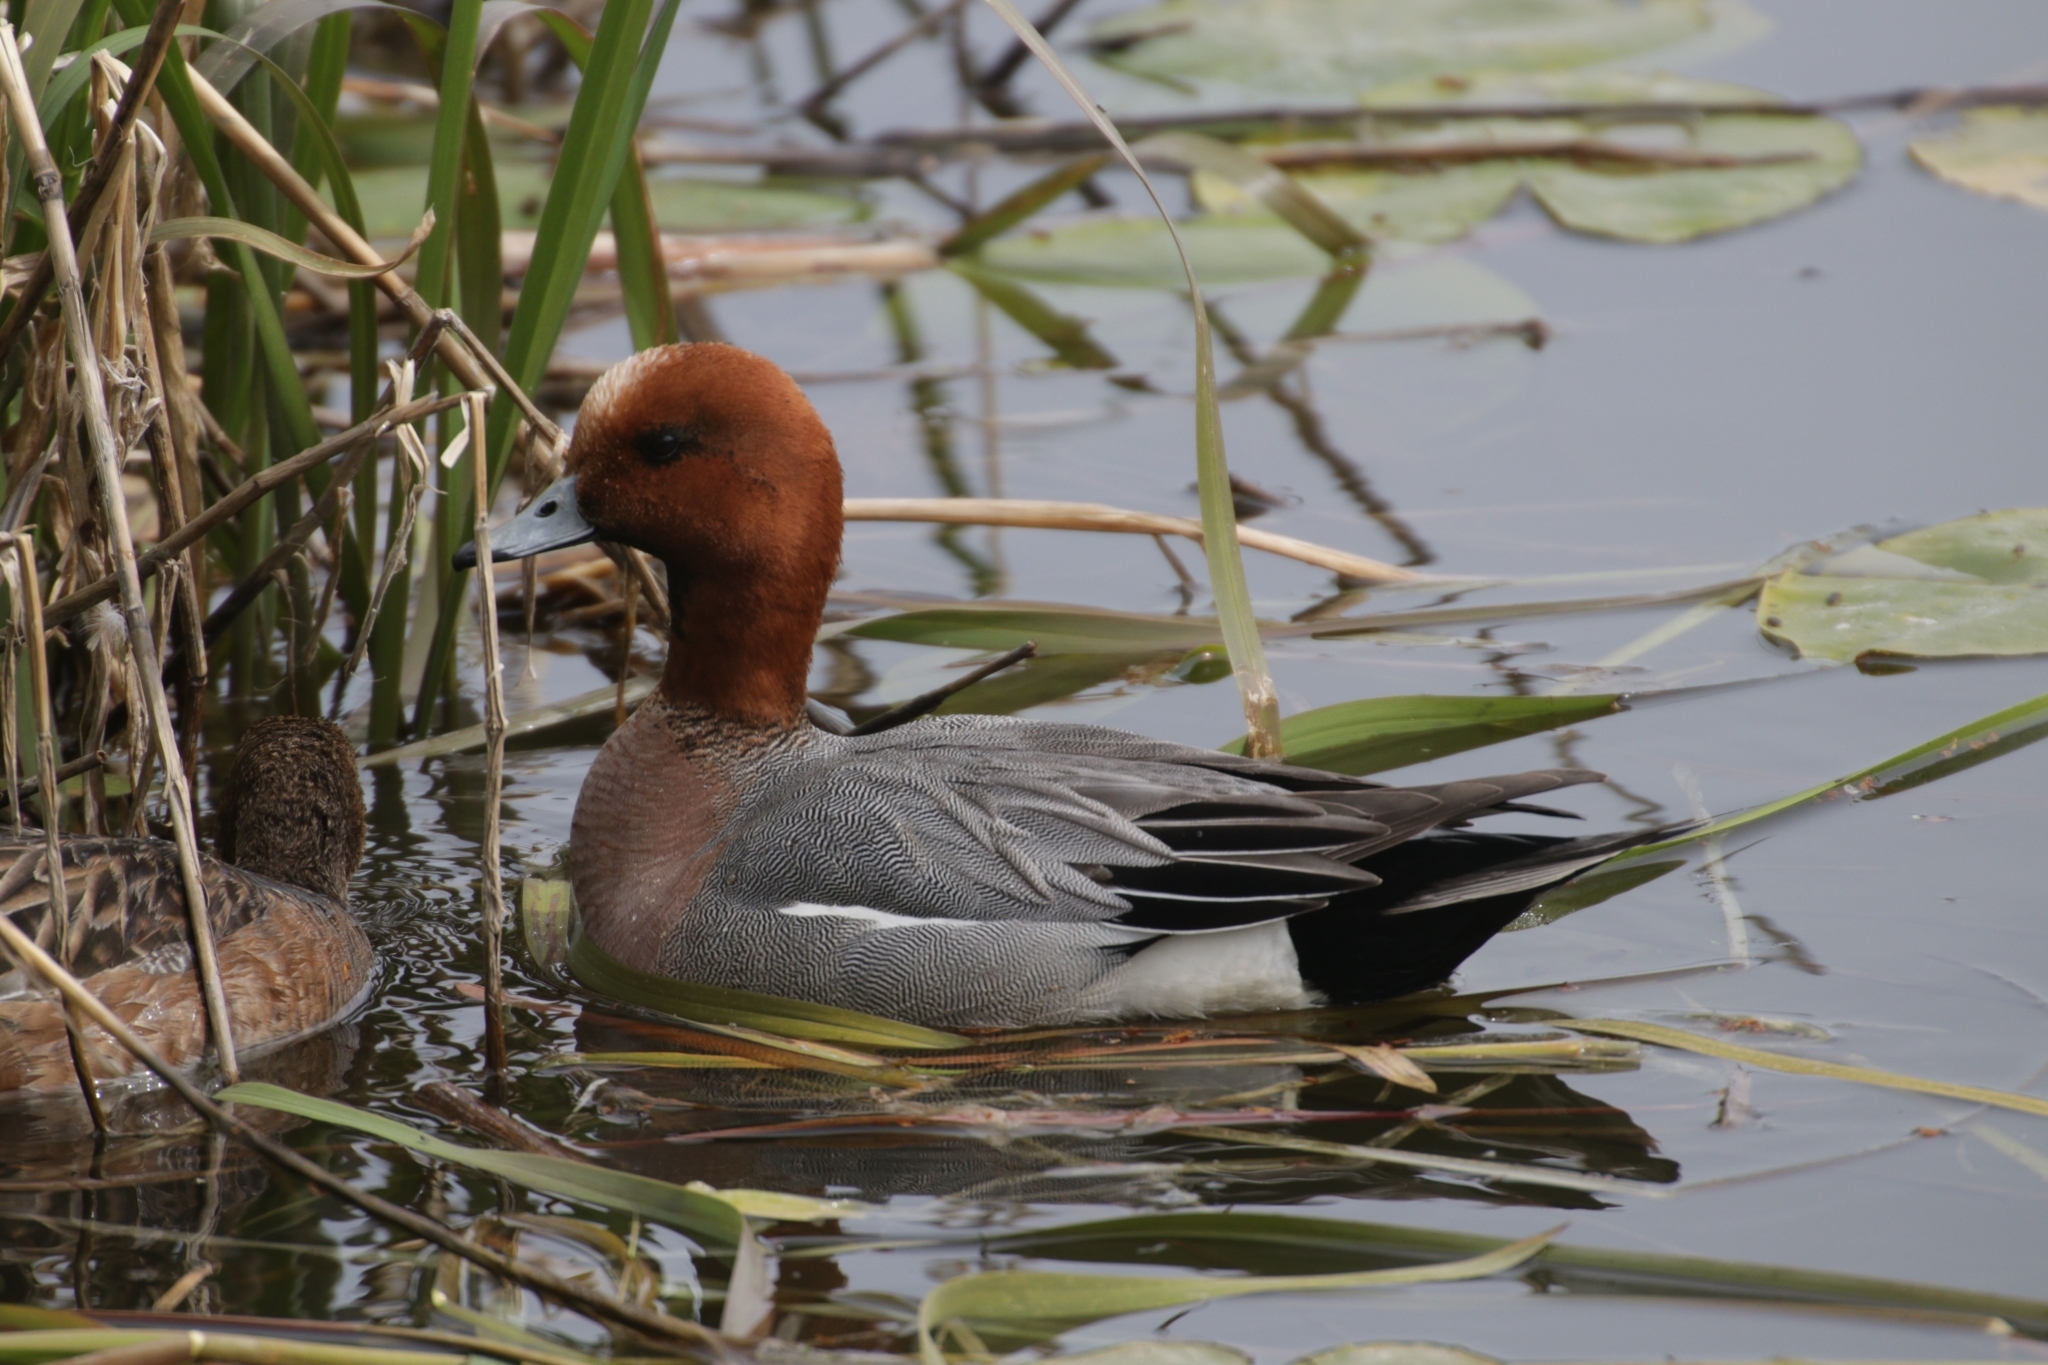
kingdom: Animalia
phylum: Chordata
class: Aves
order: Anseriformes
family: Anatidae
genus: Mareca
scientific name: Mareca penelope
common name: Eurasian wigeon
